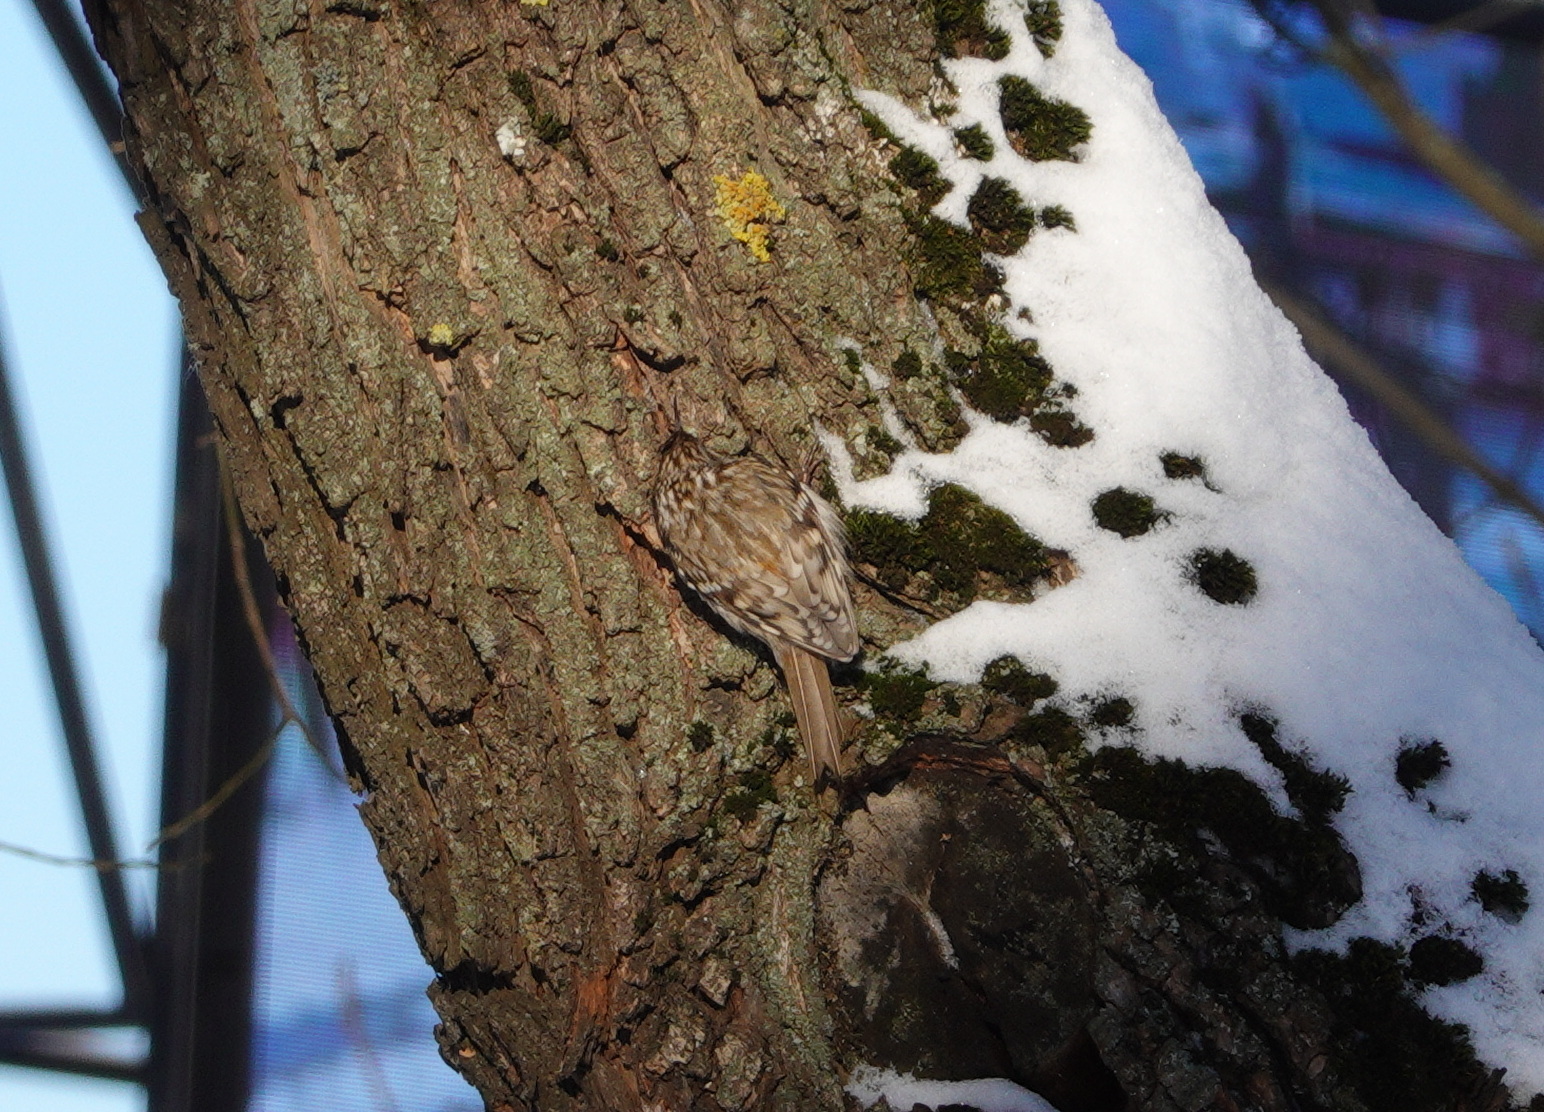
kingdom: Animalia
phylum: Chordata
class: Aves
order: Passeriformes
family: Certhiidae
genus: Certhia
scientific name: Certhia familiaris
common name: Eurasian treecreeper
